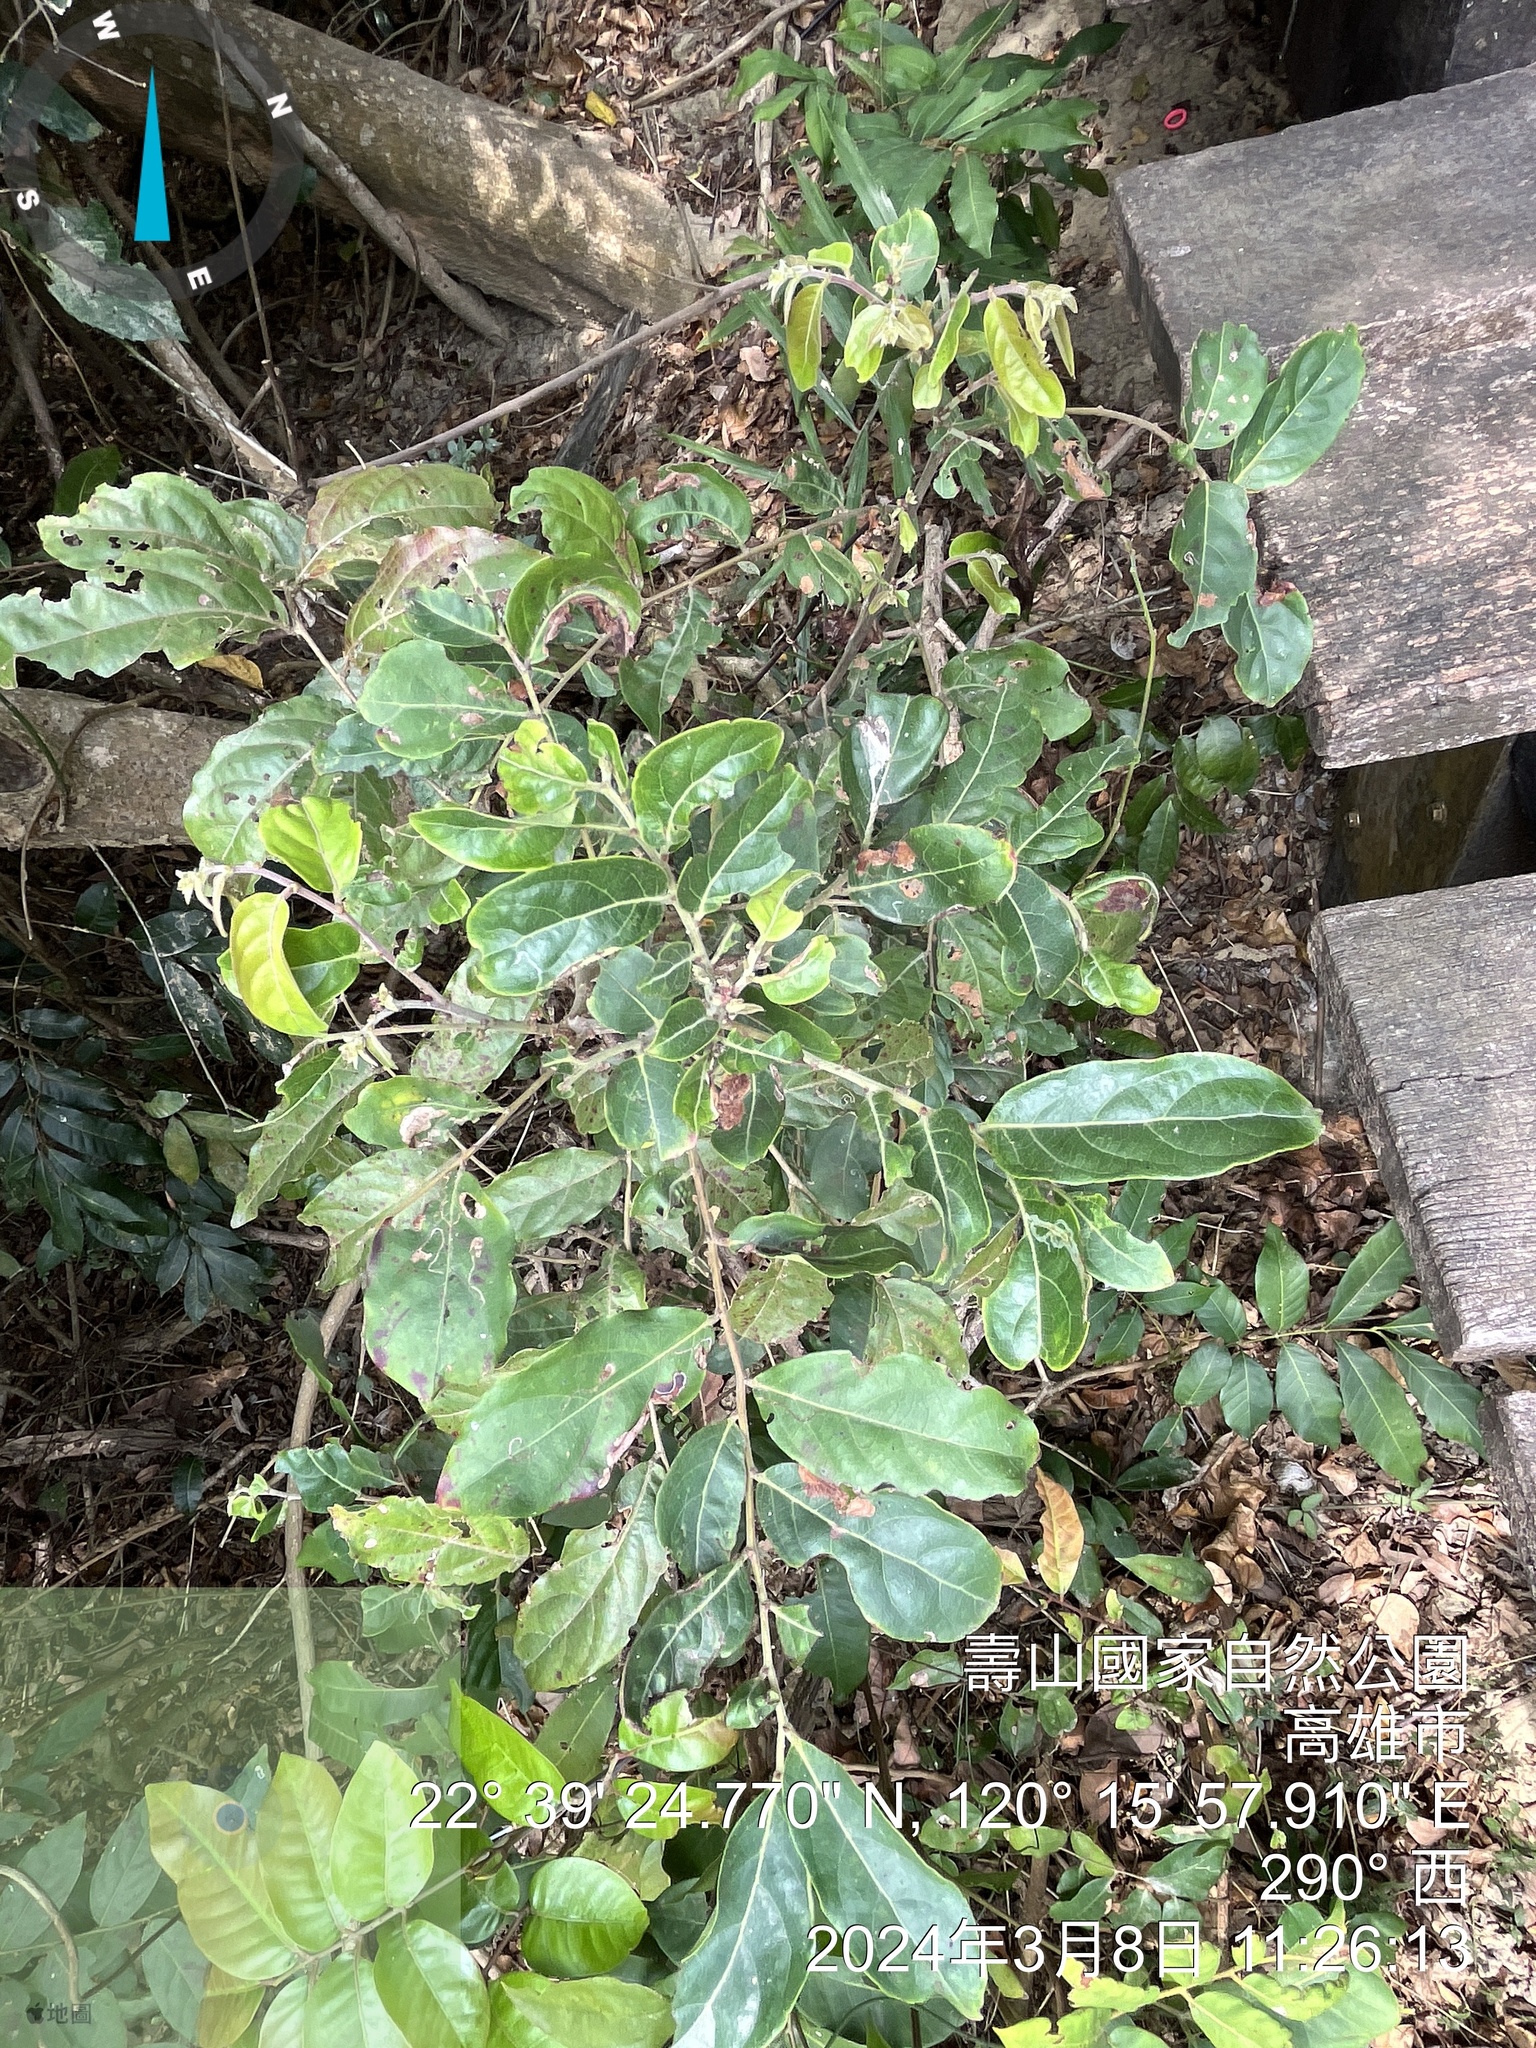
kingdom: Plantae
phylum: Tracheophyta
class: Magnoliopsida
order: Malpighiales
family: Phyllanthaceae
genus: Glochidion
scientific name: Glochidion philippicum
